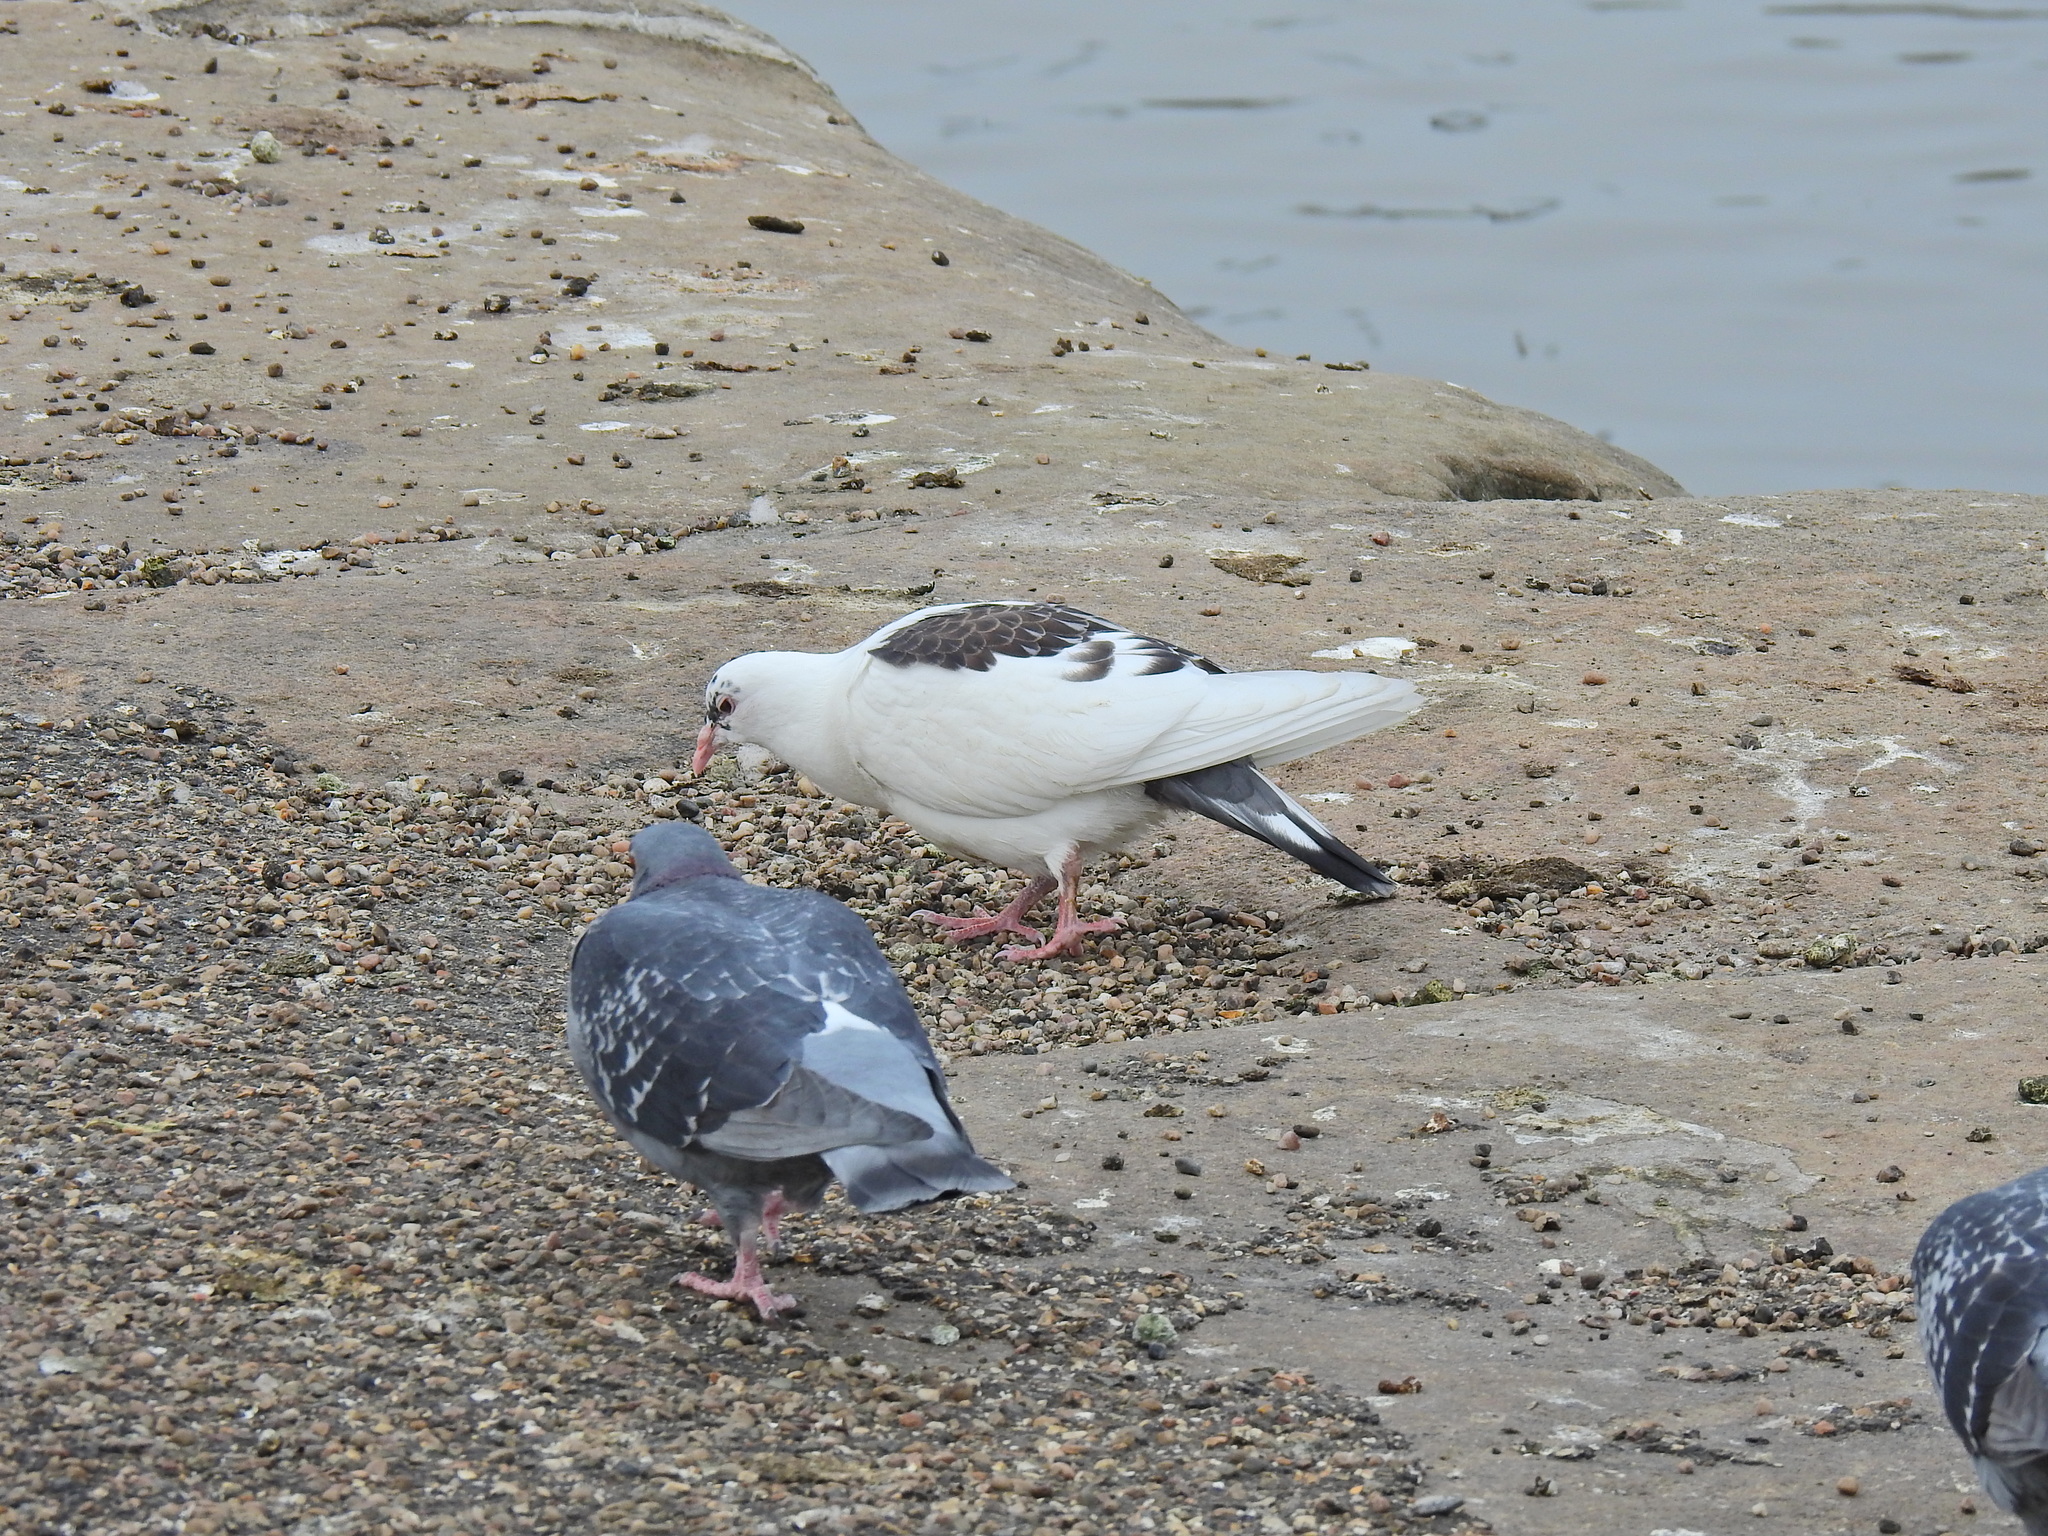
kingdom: Animalia
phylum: Chordata
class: Aves
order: Columbiformes
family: Columbidae
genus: Columba
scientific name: Columba livia
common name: Rock pigeon
